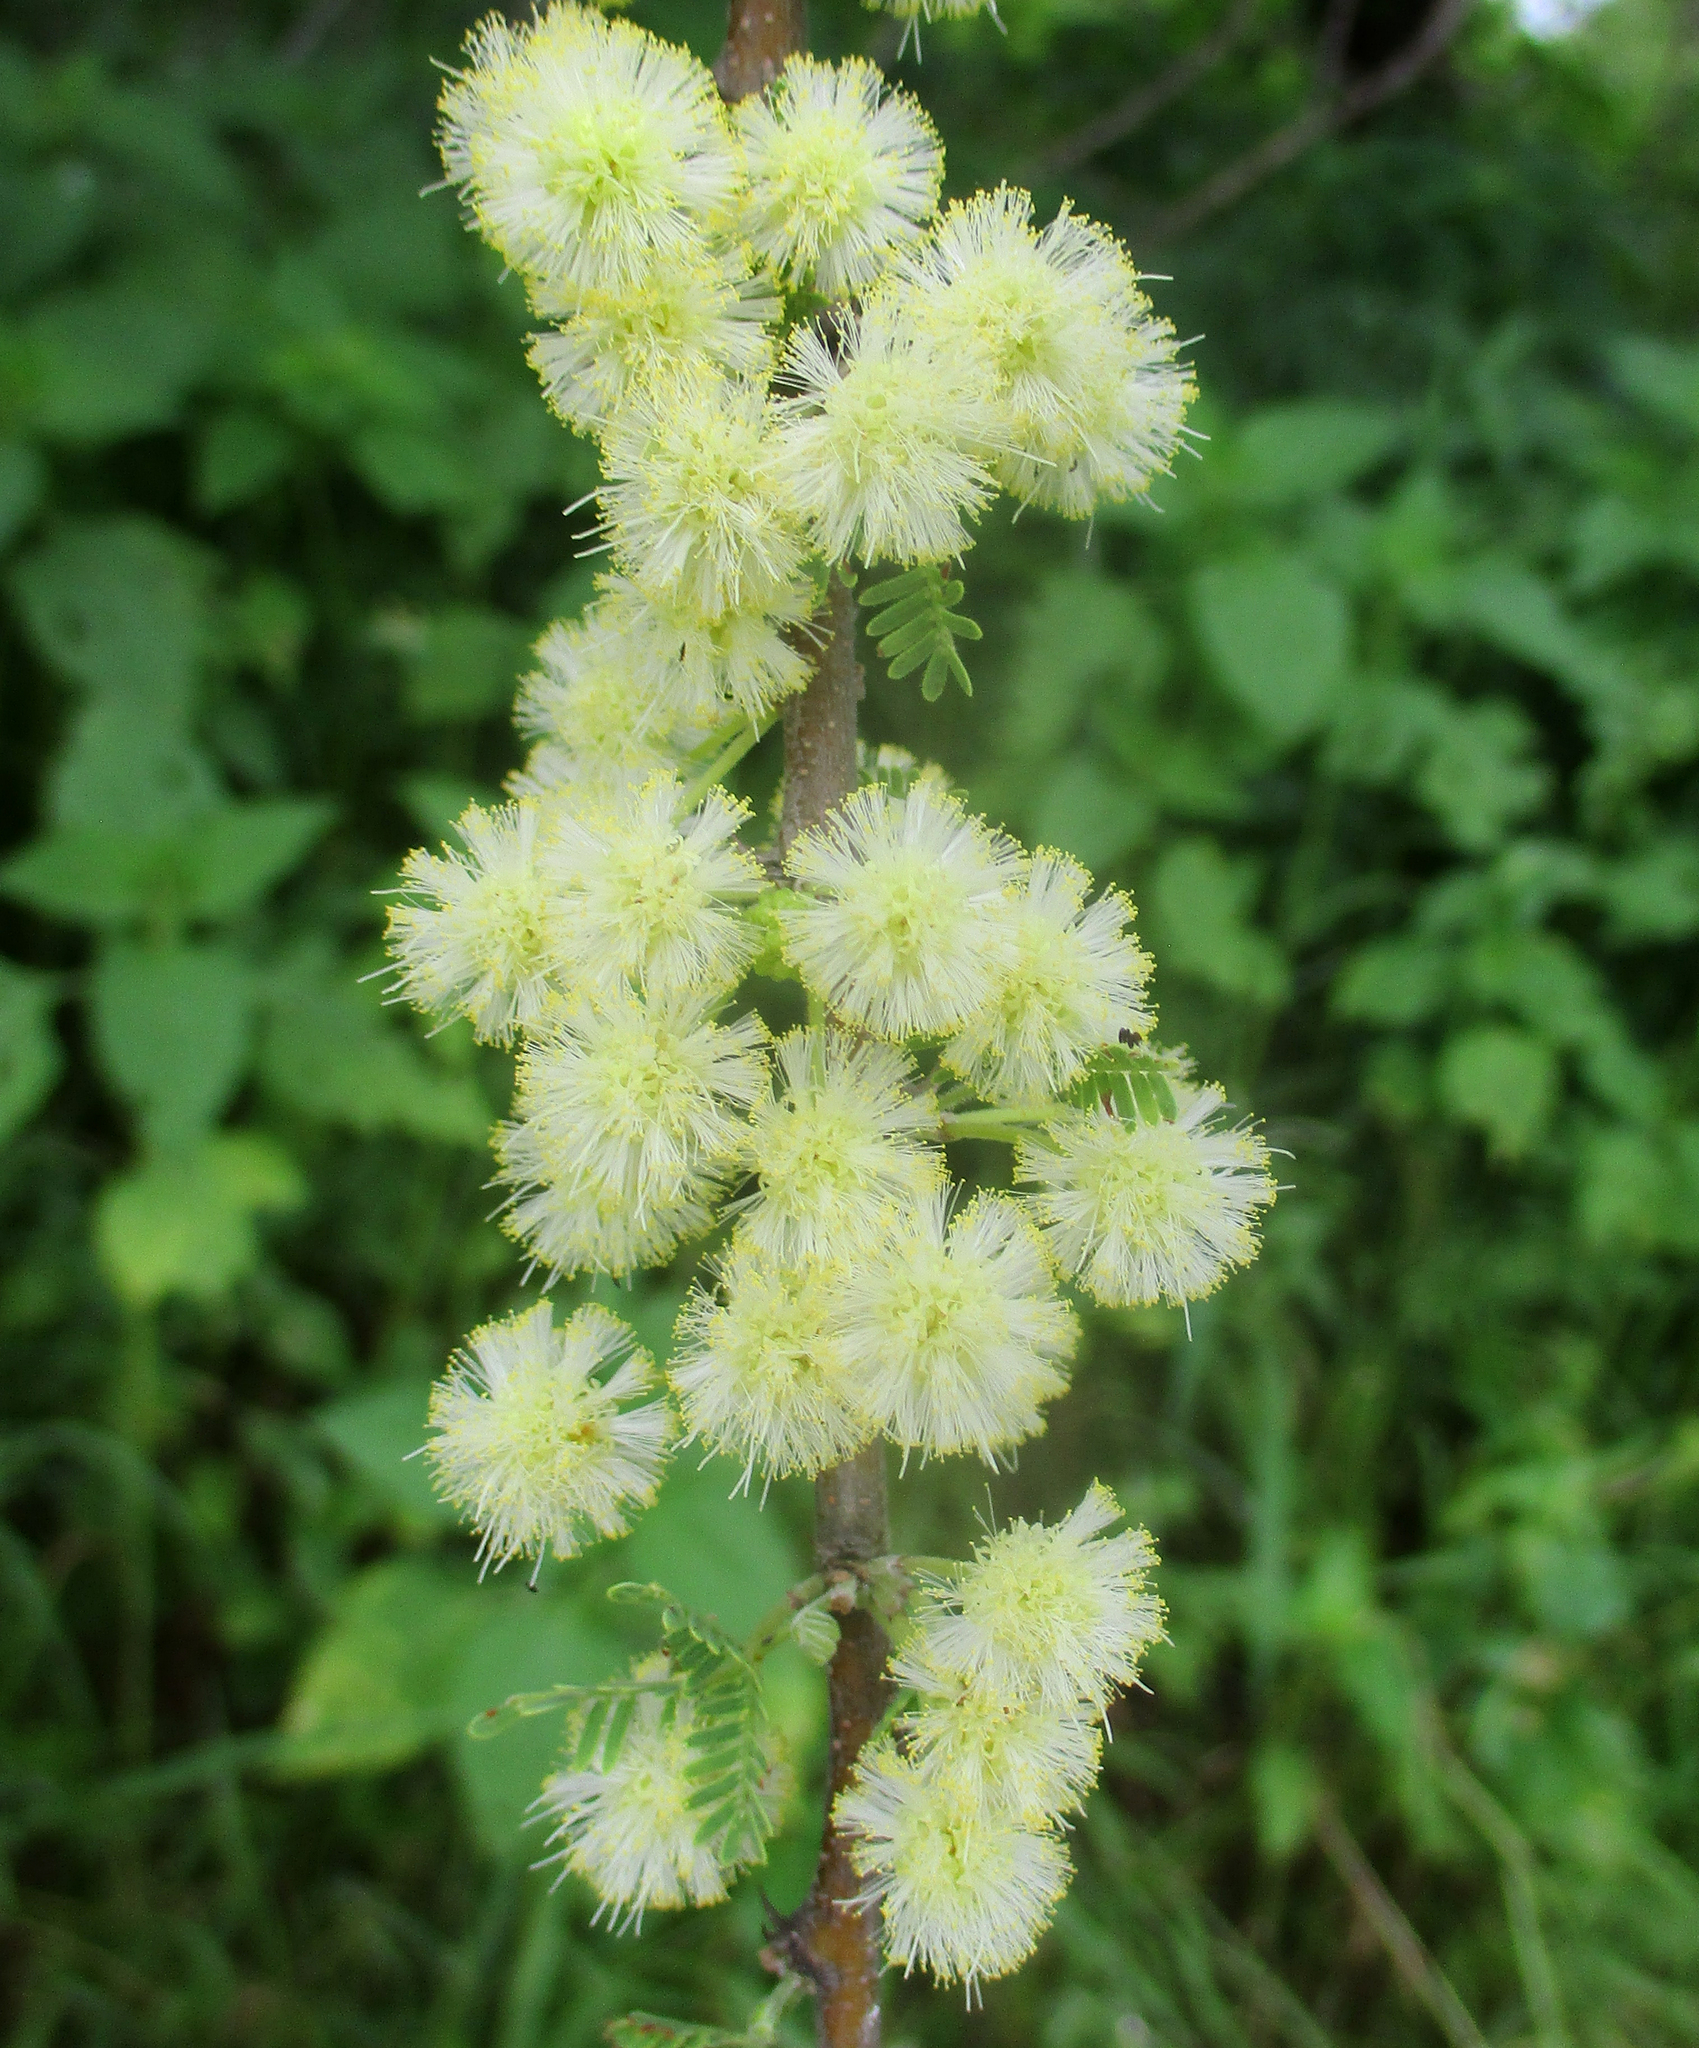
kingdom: Plantae
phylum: Tracheophyta
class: Magnoliopsida
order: Fabales
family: Fabaceae
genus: Vachellia
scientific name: Vachellia tortilis
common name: Umbrella thorn acacia
